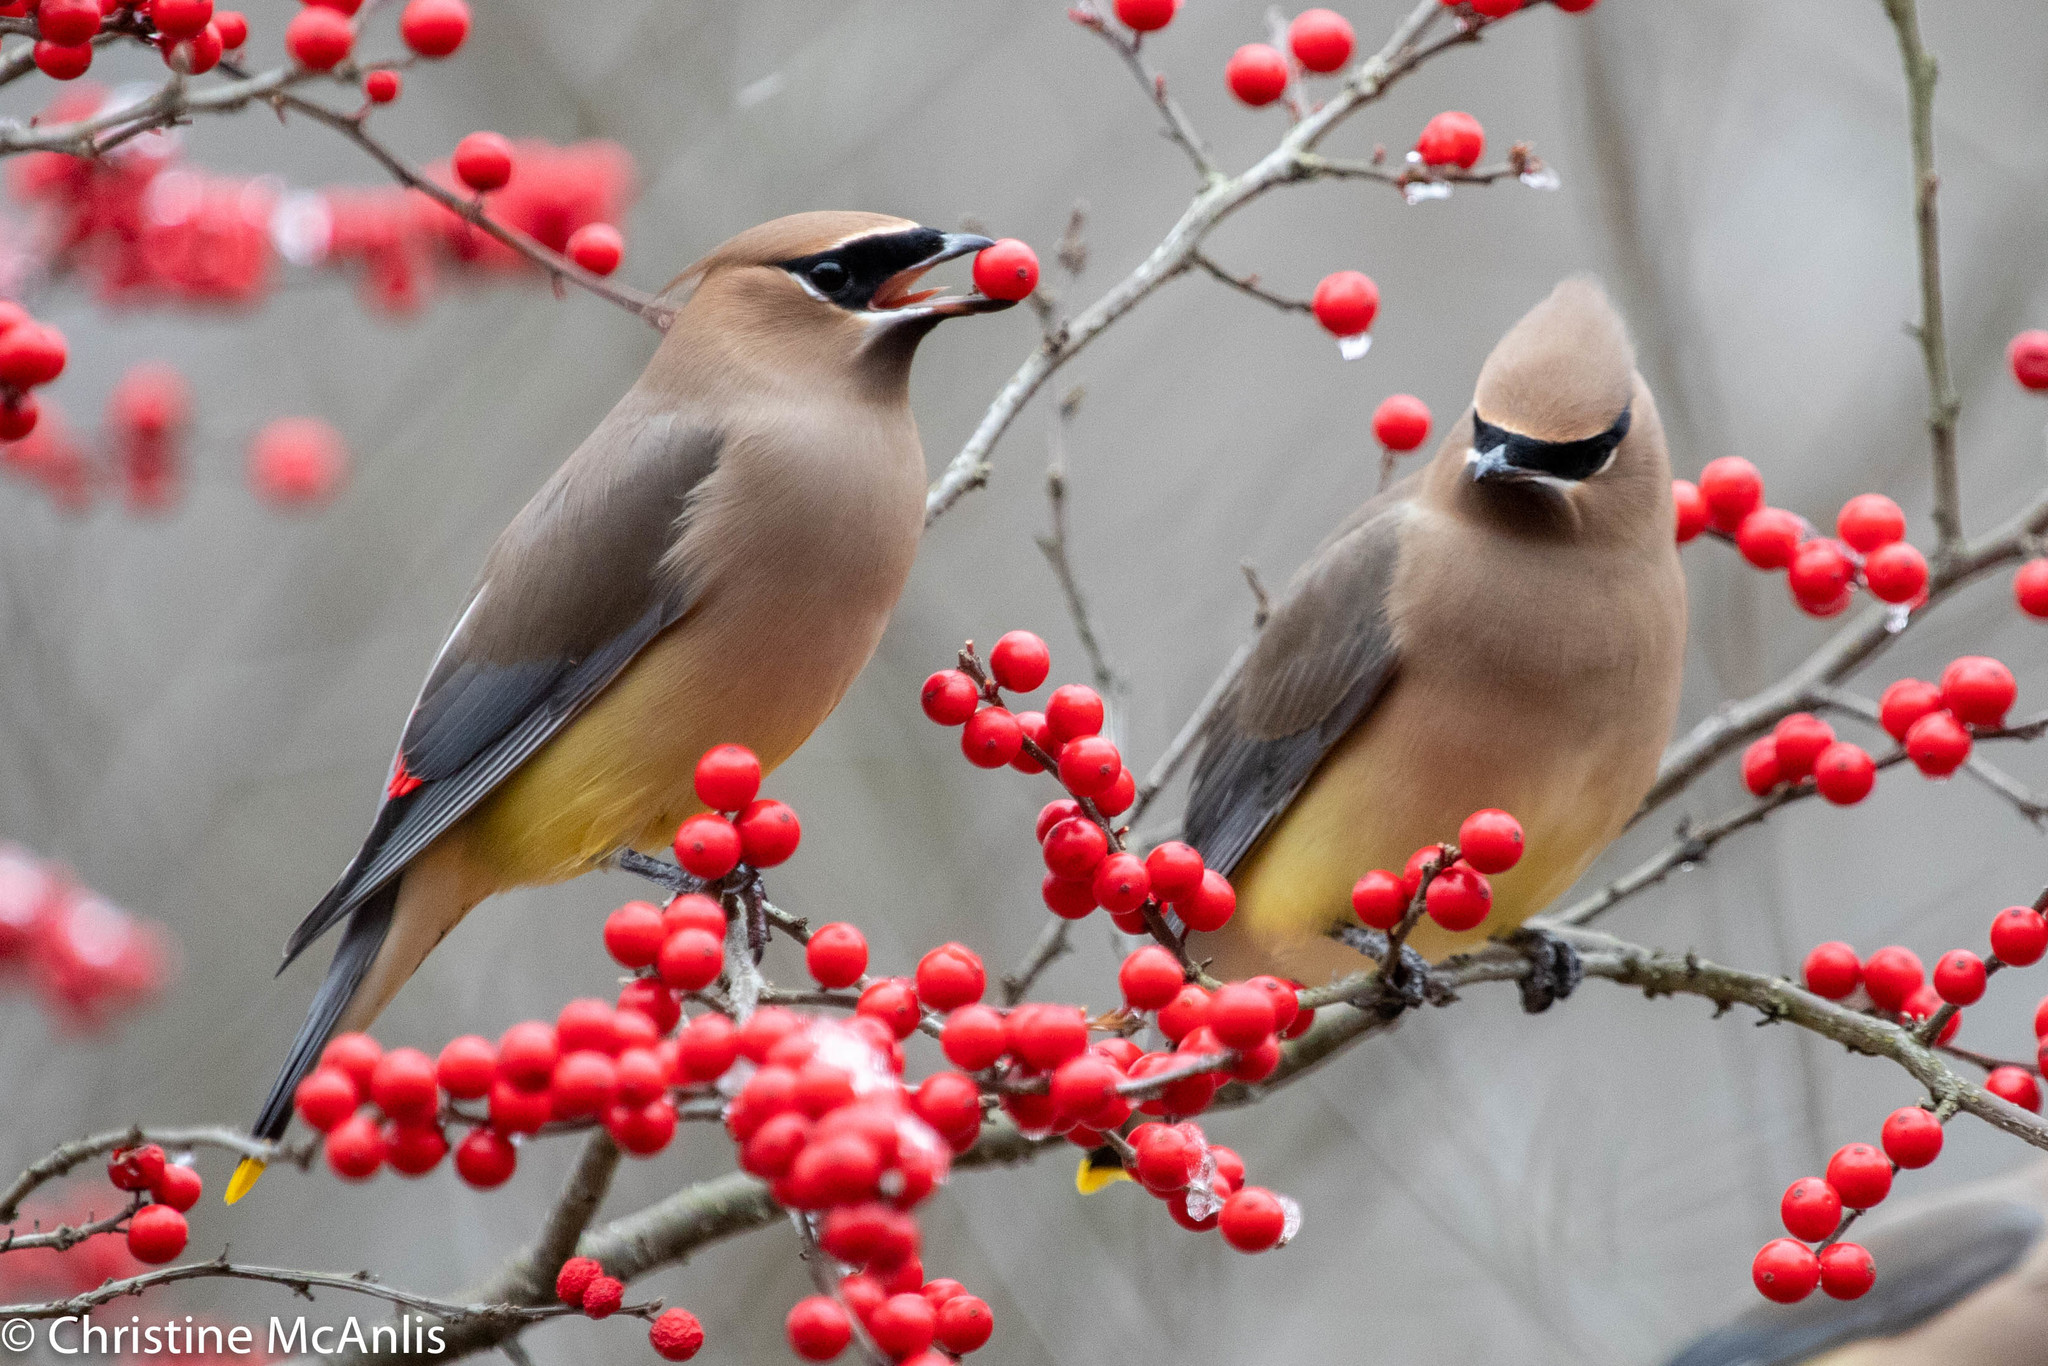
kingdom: Animalia
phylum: Chordata
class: Aves
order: Passeriformes
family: Bombycillidae
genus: Bombycilla
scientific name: Bombycilla cedrorum
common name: Cedar waxwing
